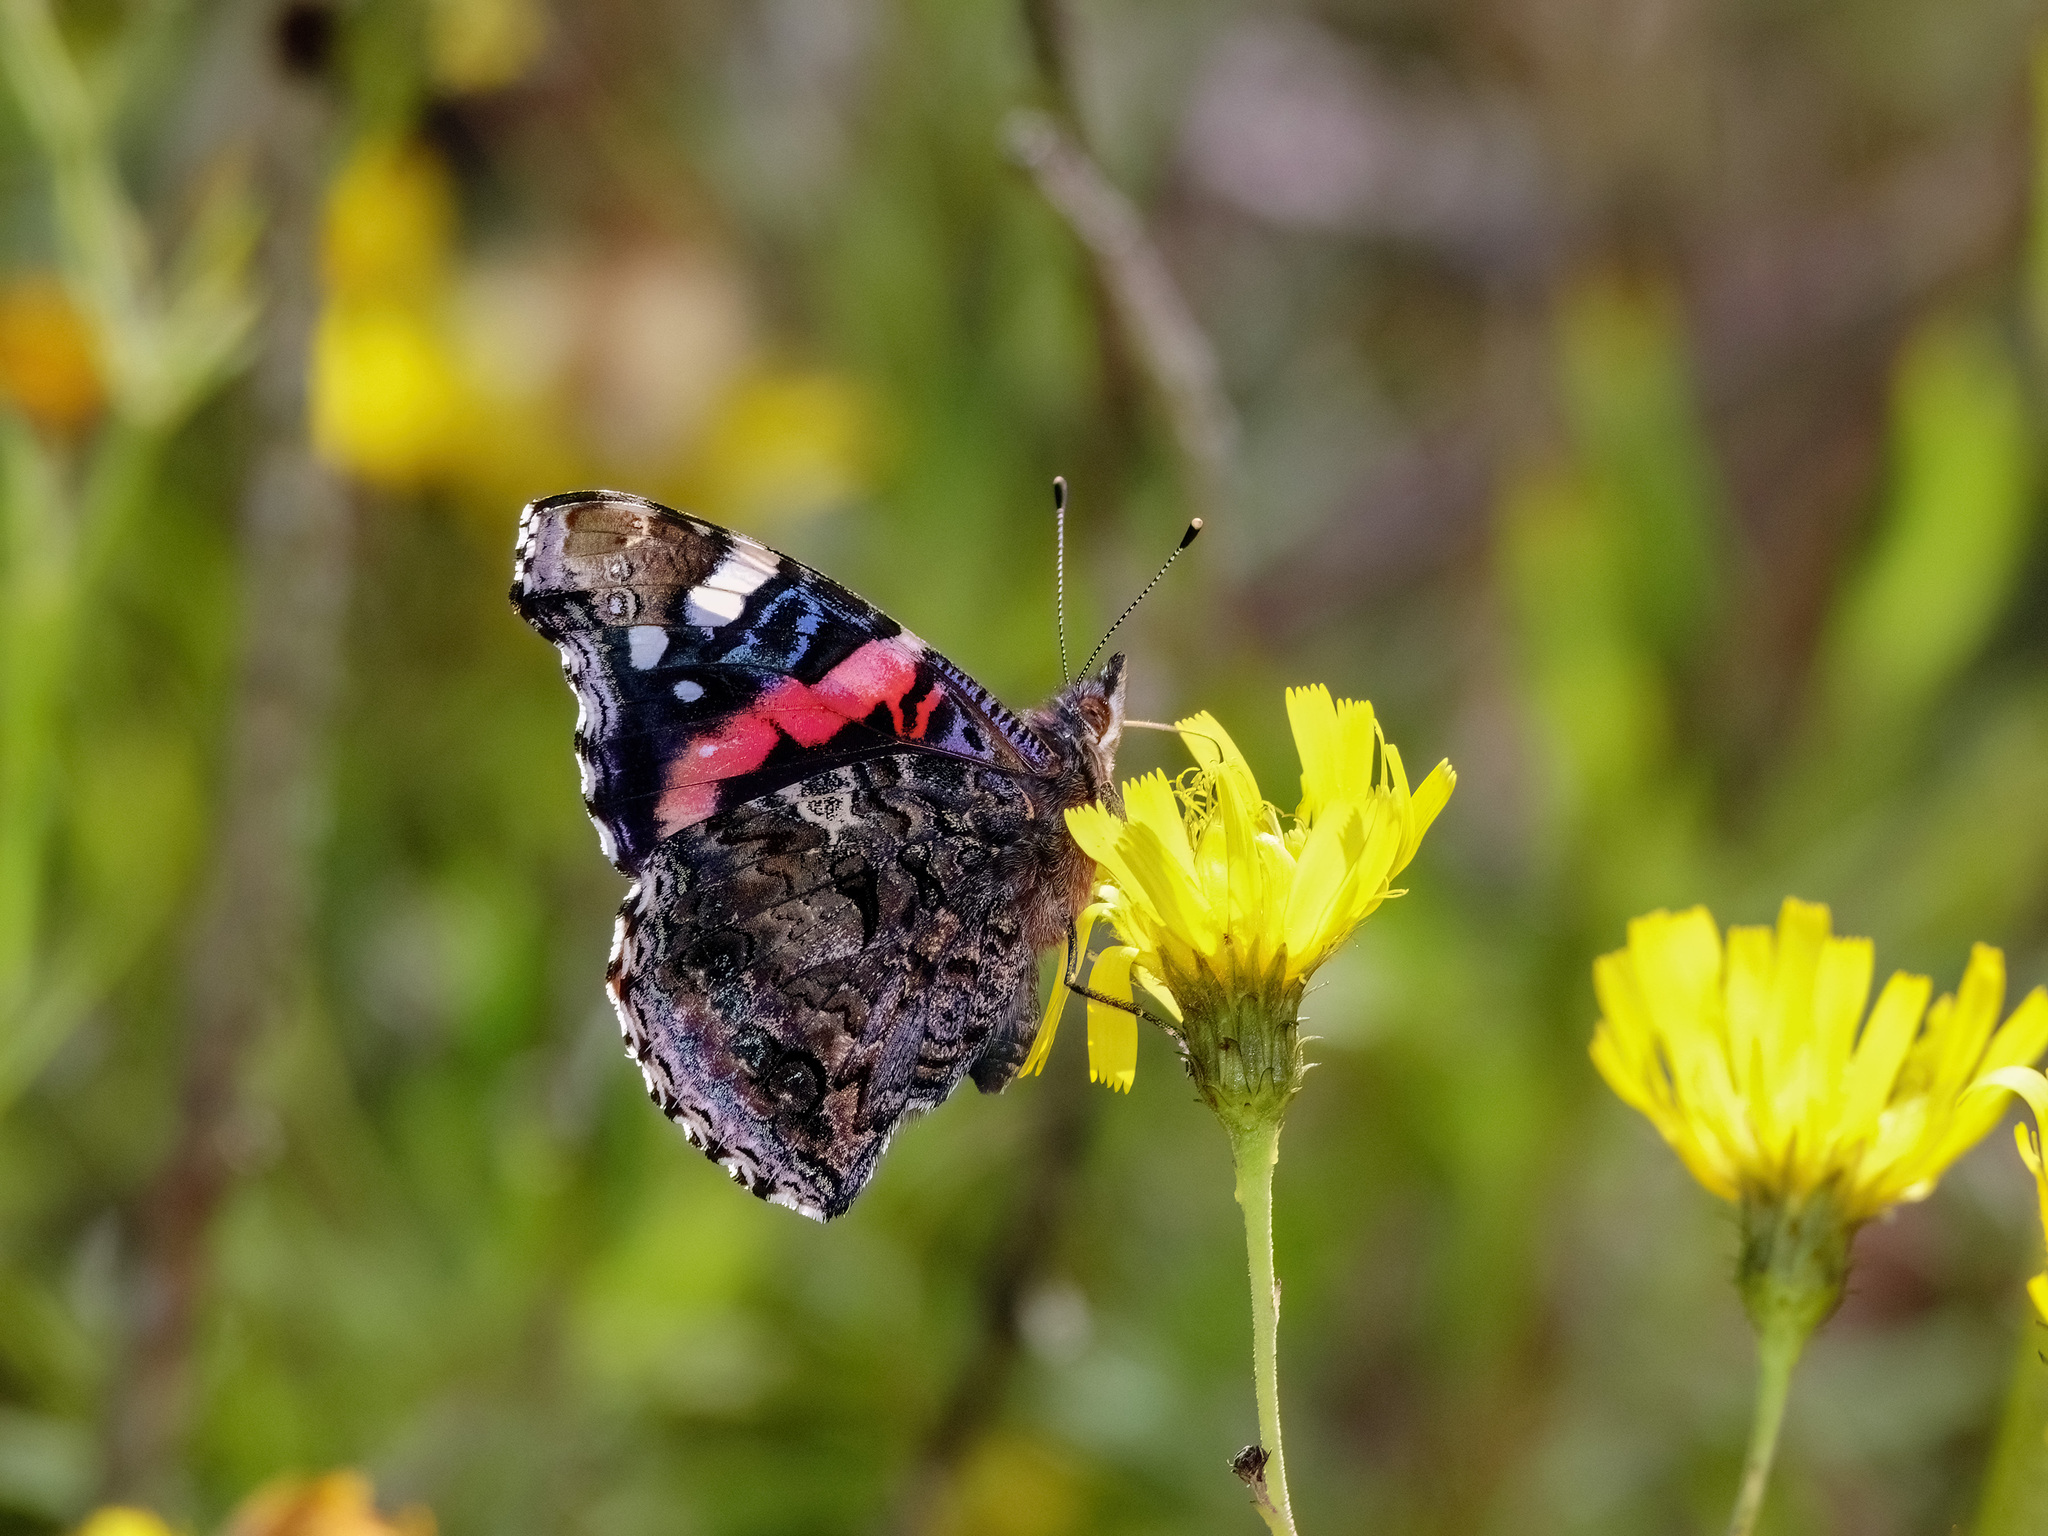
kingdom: Animalia
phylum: Arthropoda
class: Insecta
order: Lepidoptera
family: Nymphalidae
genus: Vanessa
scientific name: Vanessa atalanta
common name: Red admiral
